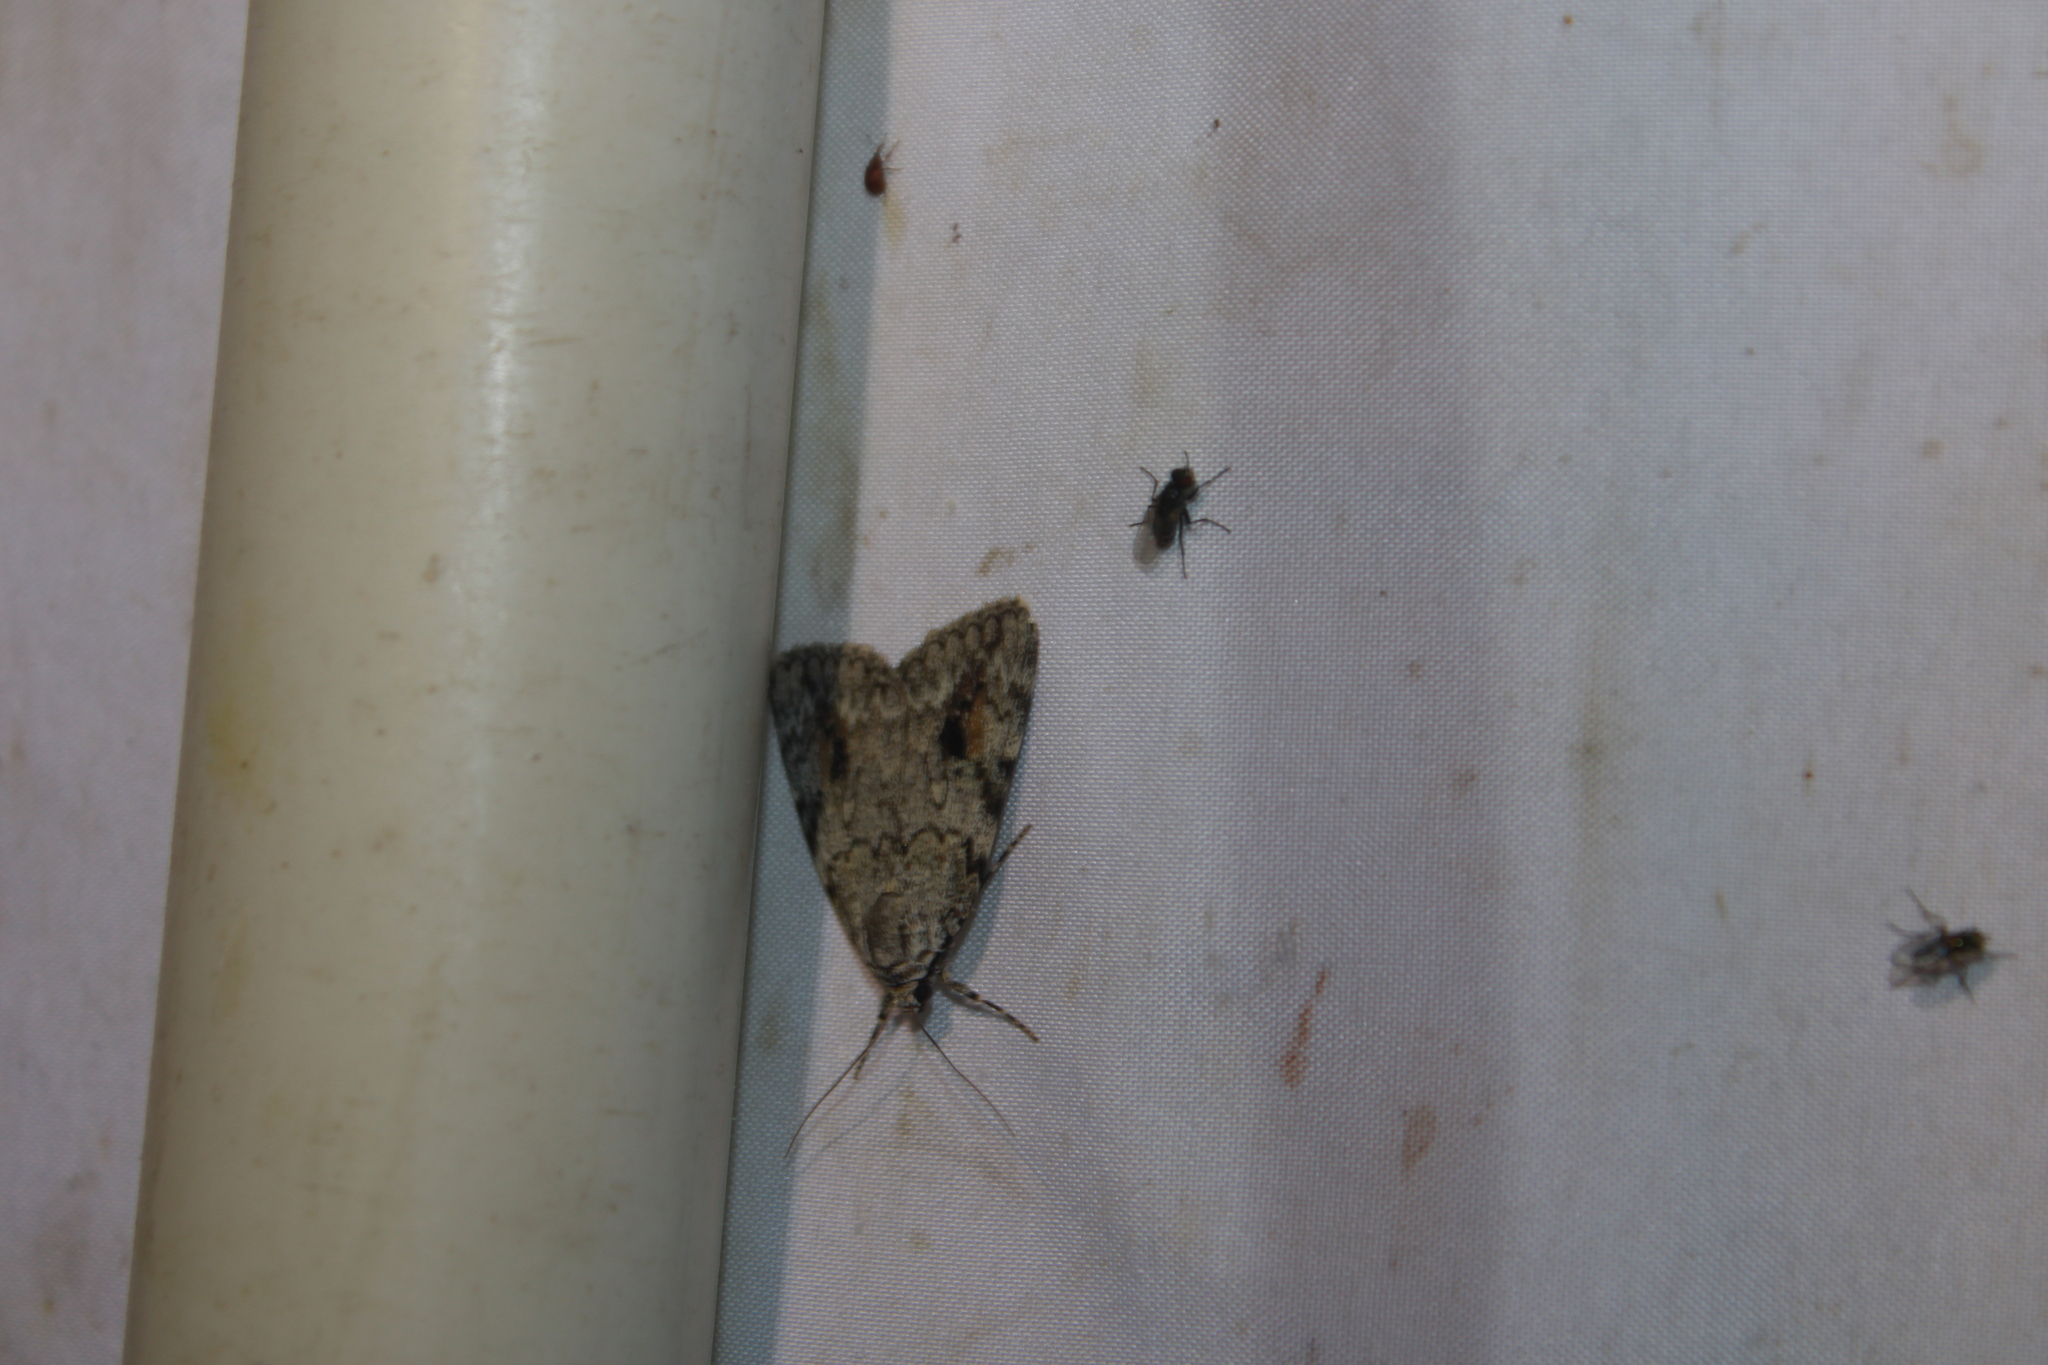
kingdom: Animalia
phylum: Arthropoda
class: Insecta
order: Lepidoptera
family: Erebidae
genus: Catocala
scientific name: Catocala amica
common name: Girlfriend underwing
